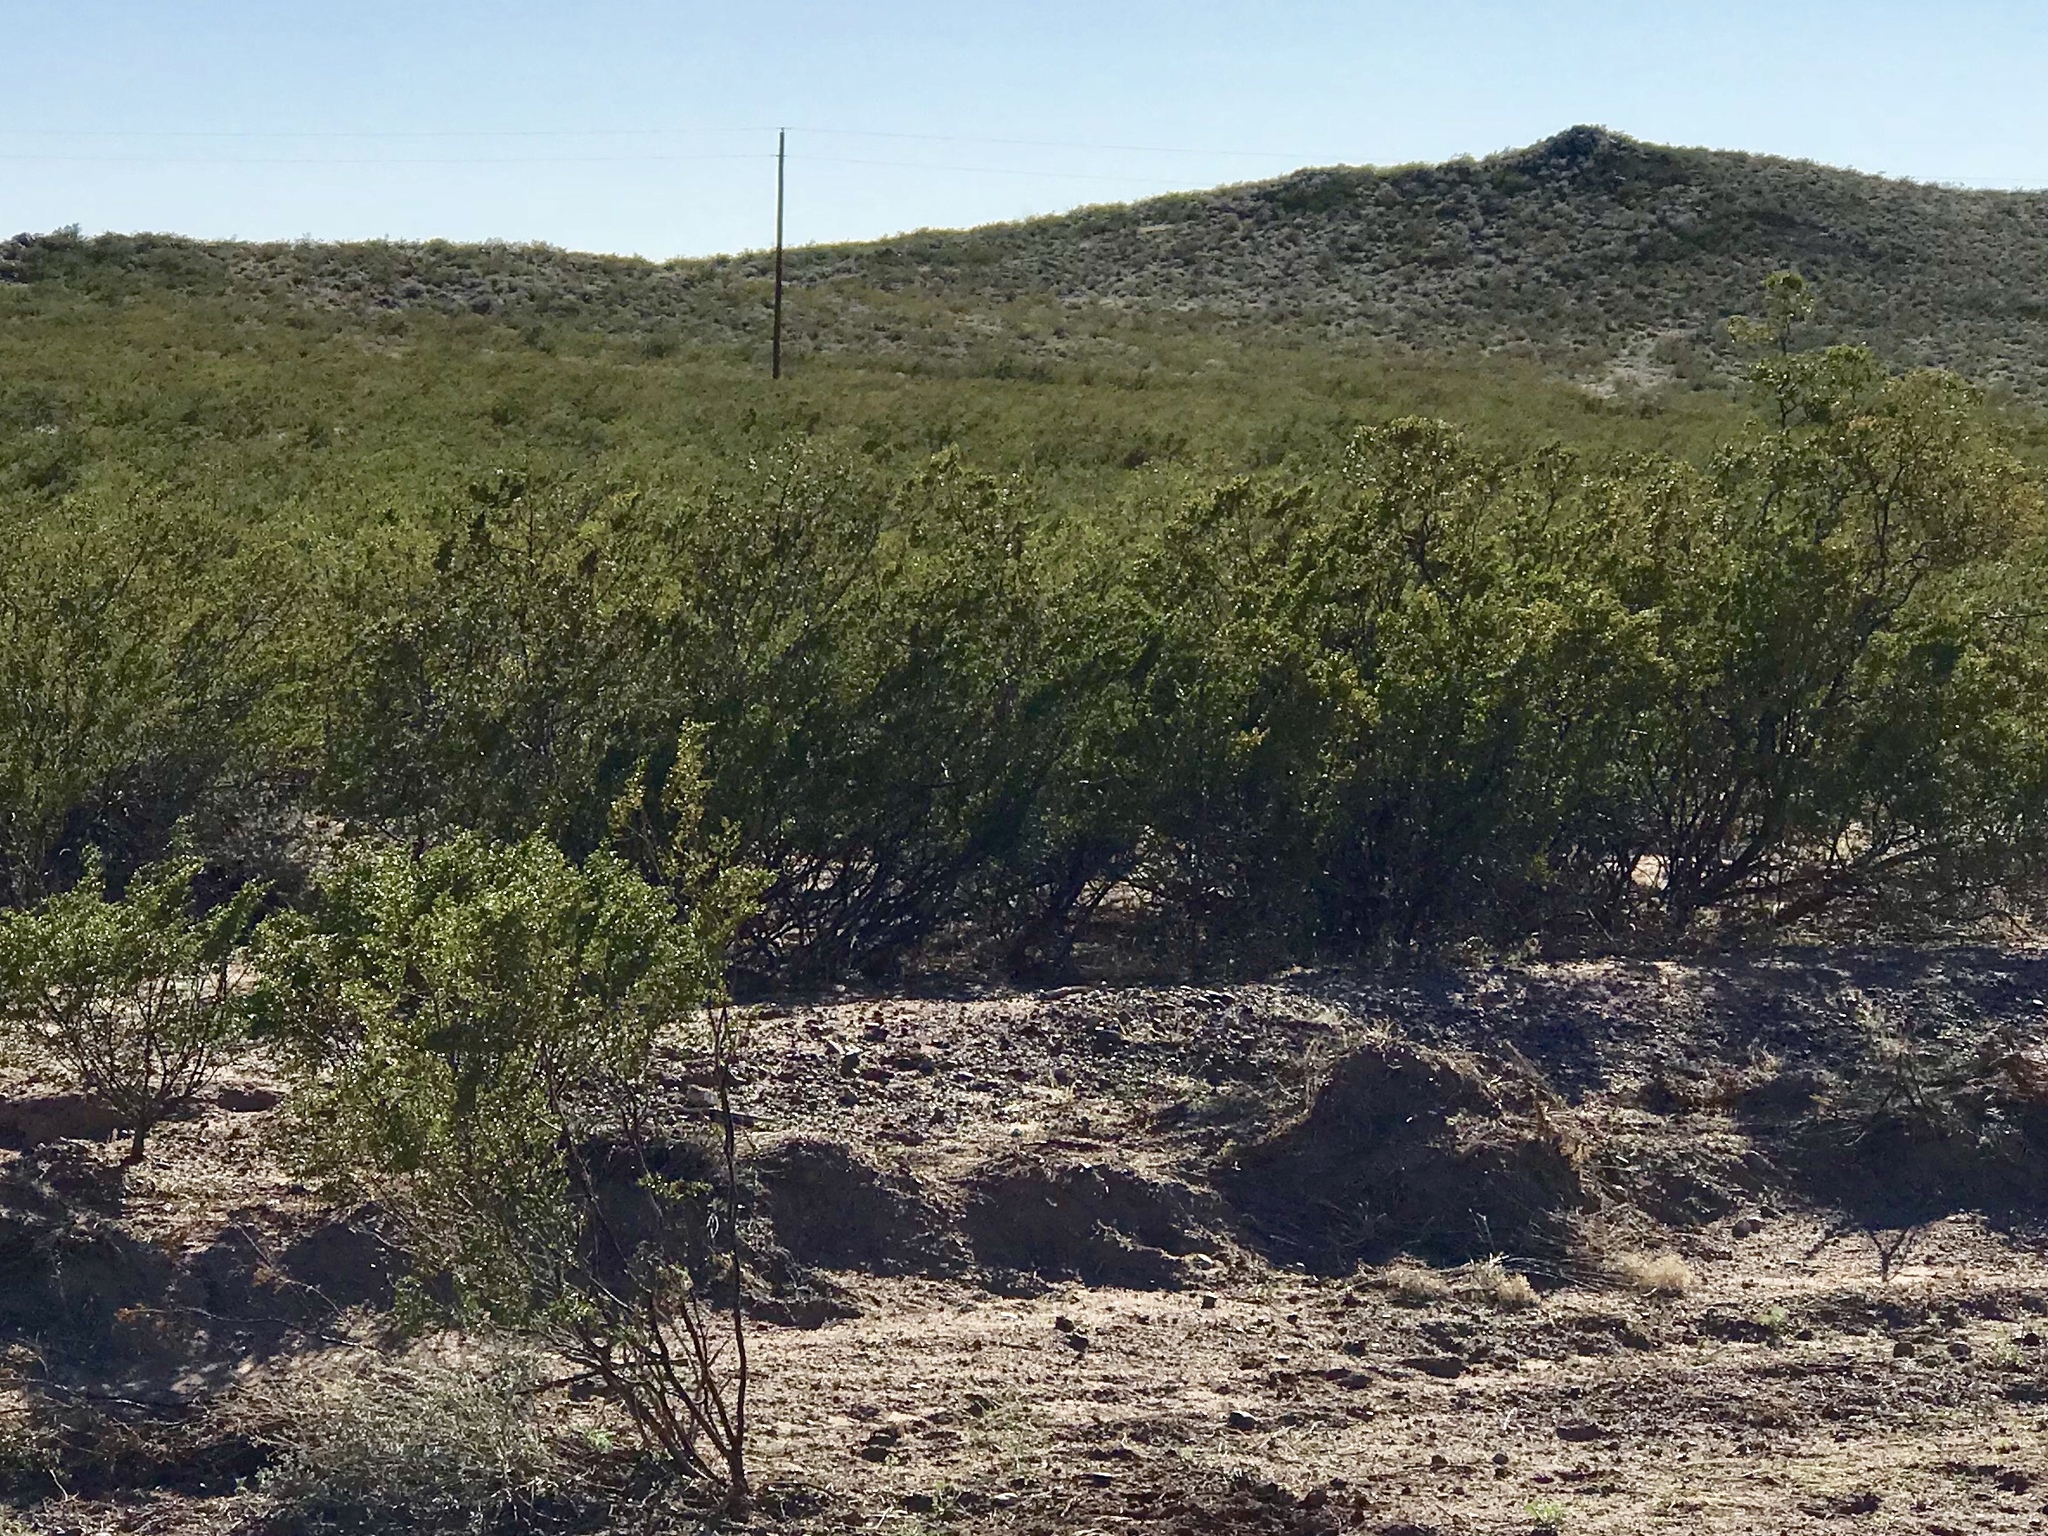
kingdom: Plantae
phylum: Tracheophyta
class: Magnoliopsida
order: Zygophyllales
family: Zygophyllaceae
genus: Larrea
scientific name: Larrea tridentata
